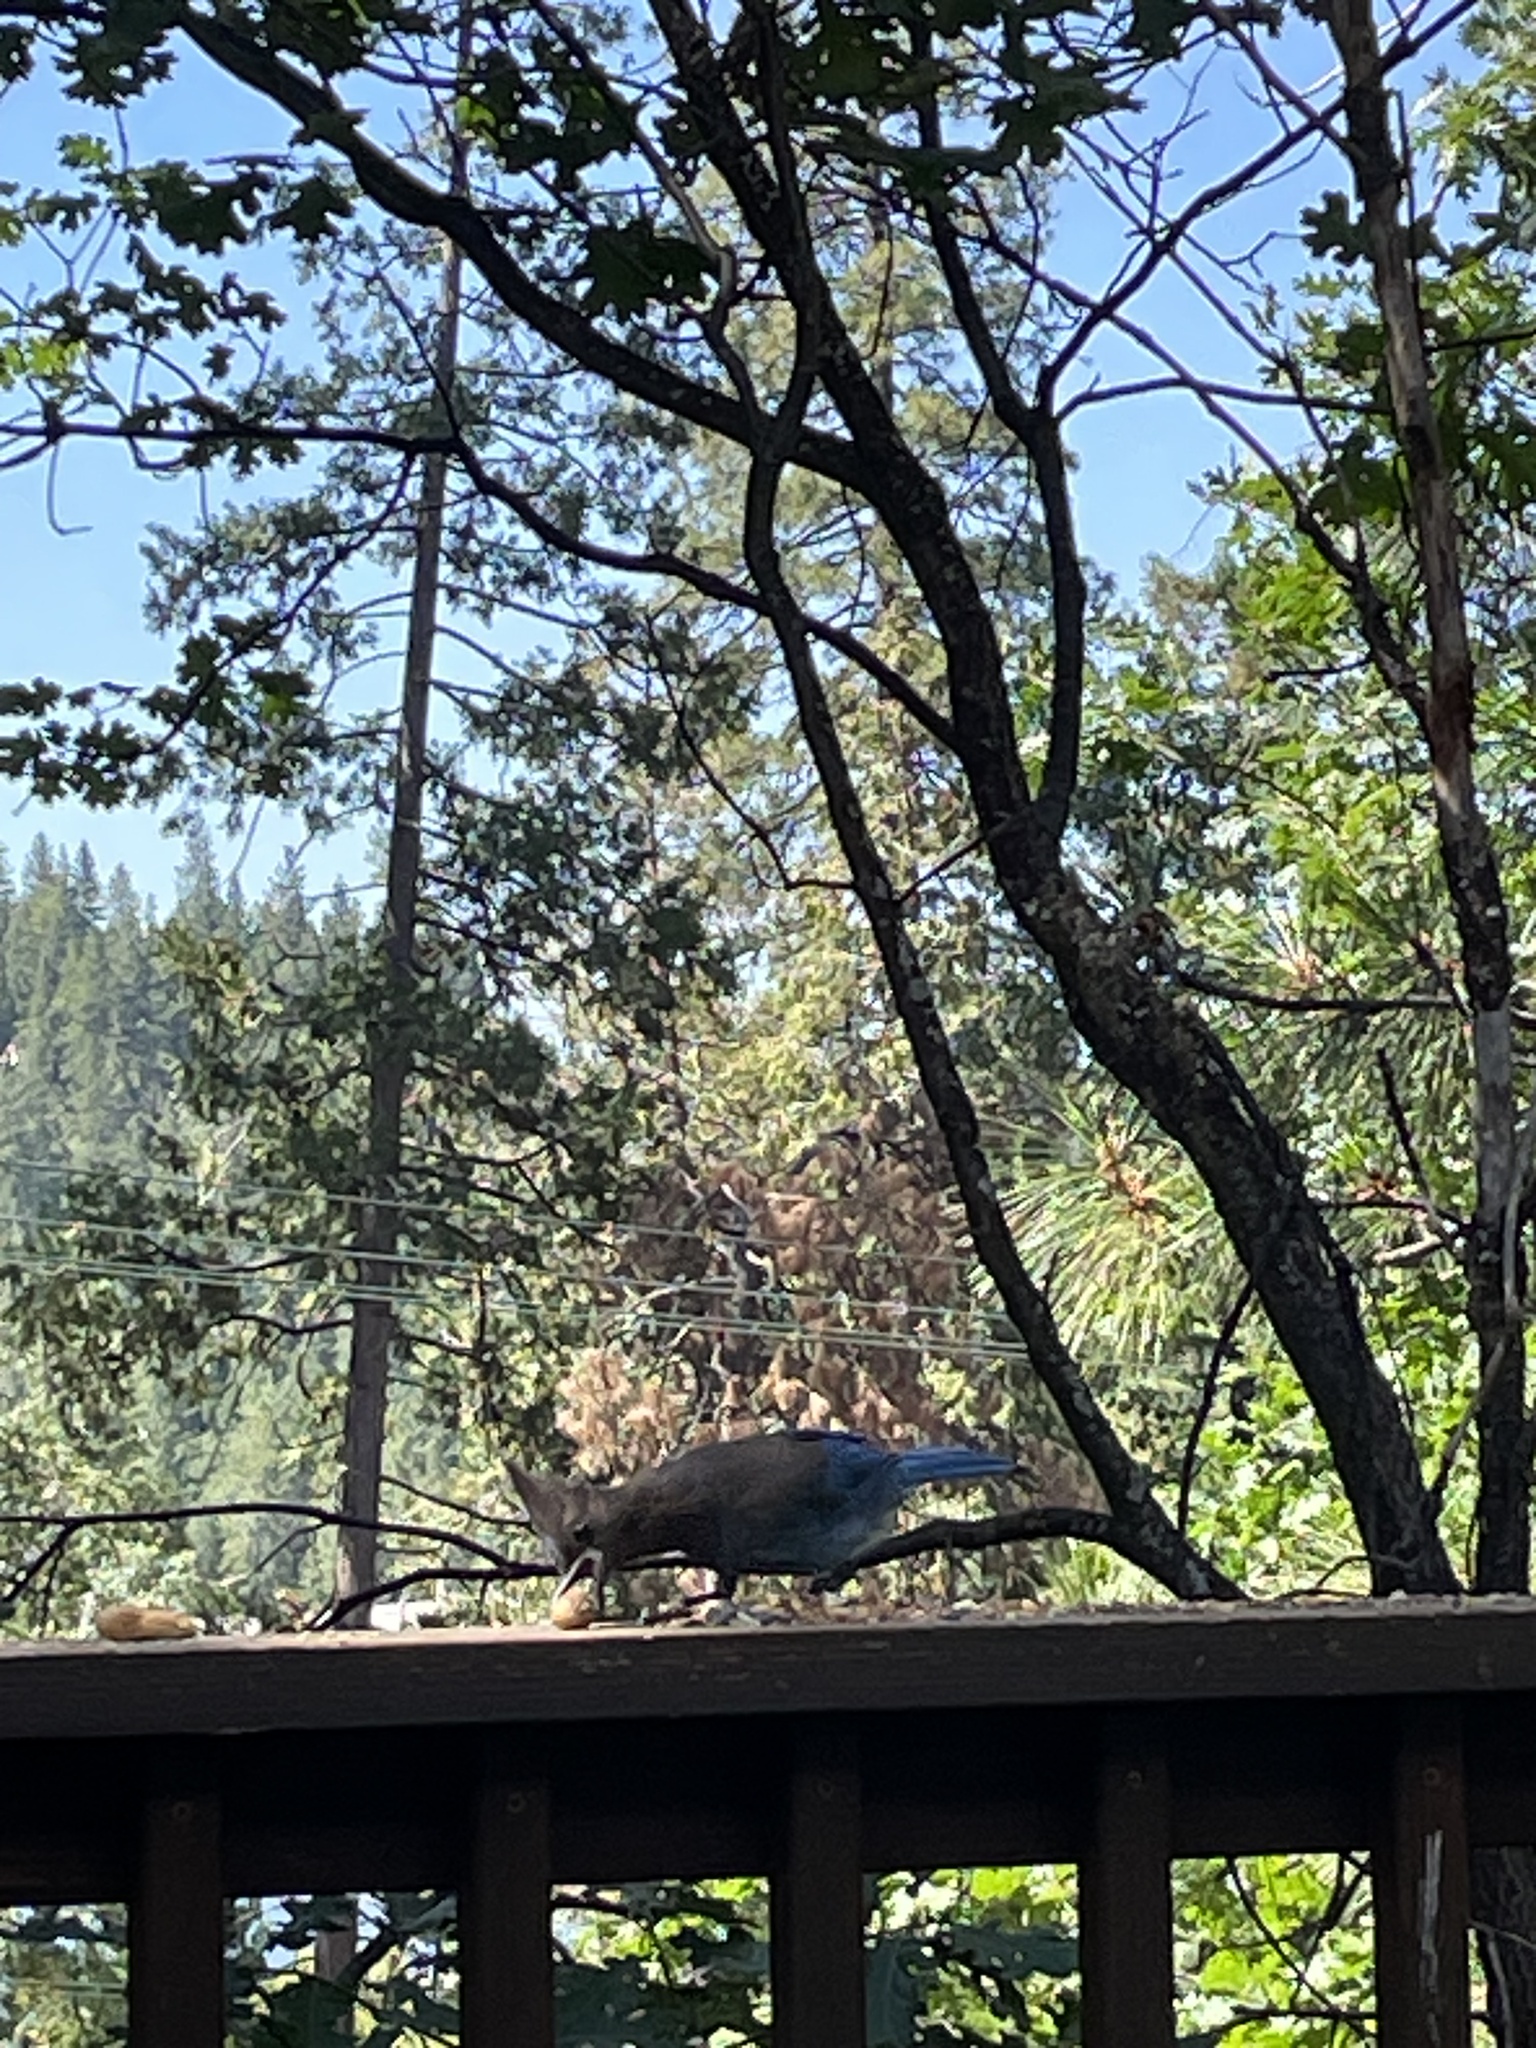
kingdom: Animalia
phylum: Chordata
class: Aves
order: Passeriformes
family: Corvidae
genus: Cyanocitta
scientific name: Cyanocitta stelleri
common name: Steller's jay
